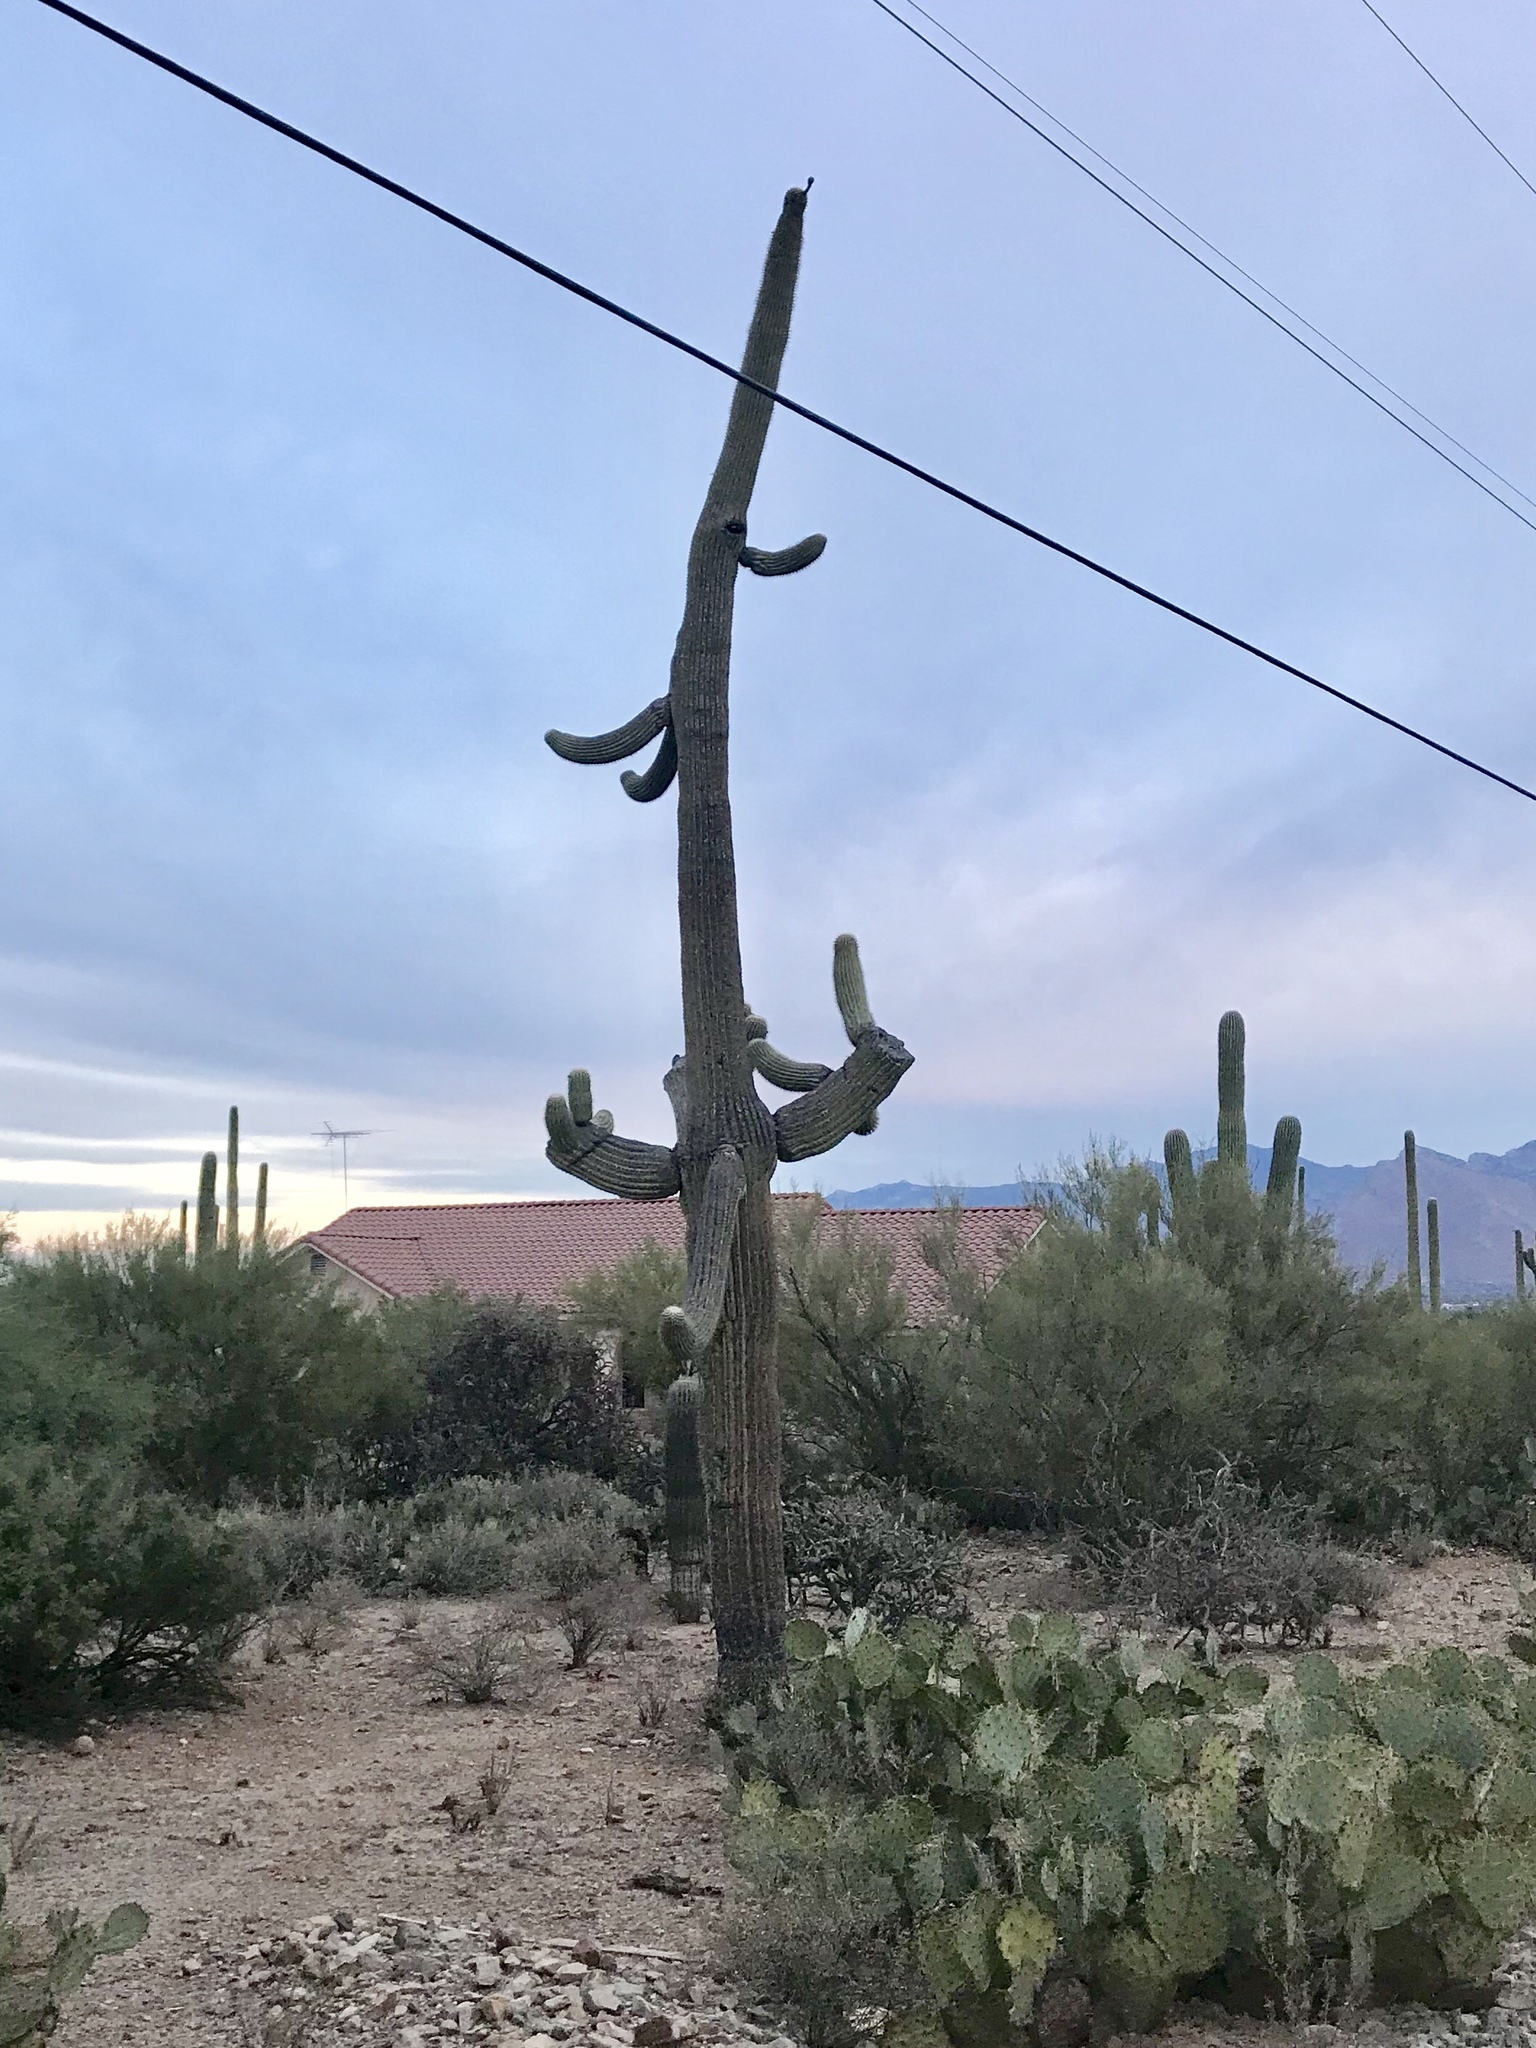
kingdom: Plantae
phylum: Tracheophyta
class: Magnoliopsida
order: Caryophyllales
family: Cactaceae
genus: Carnegiea
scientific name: Carnegiea gigantea
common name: Saguaro
